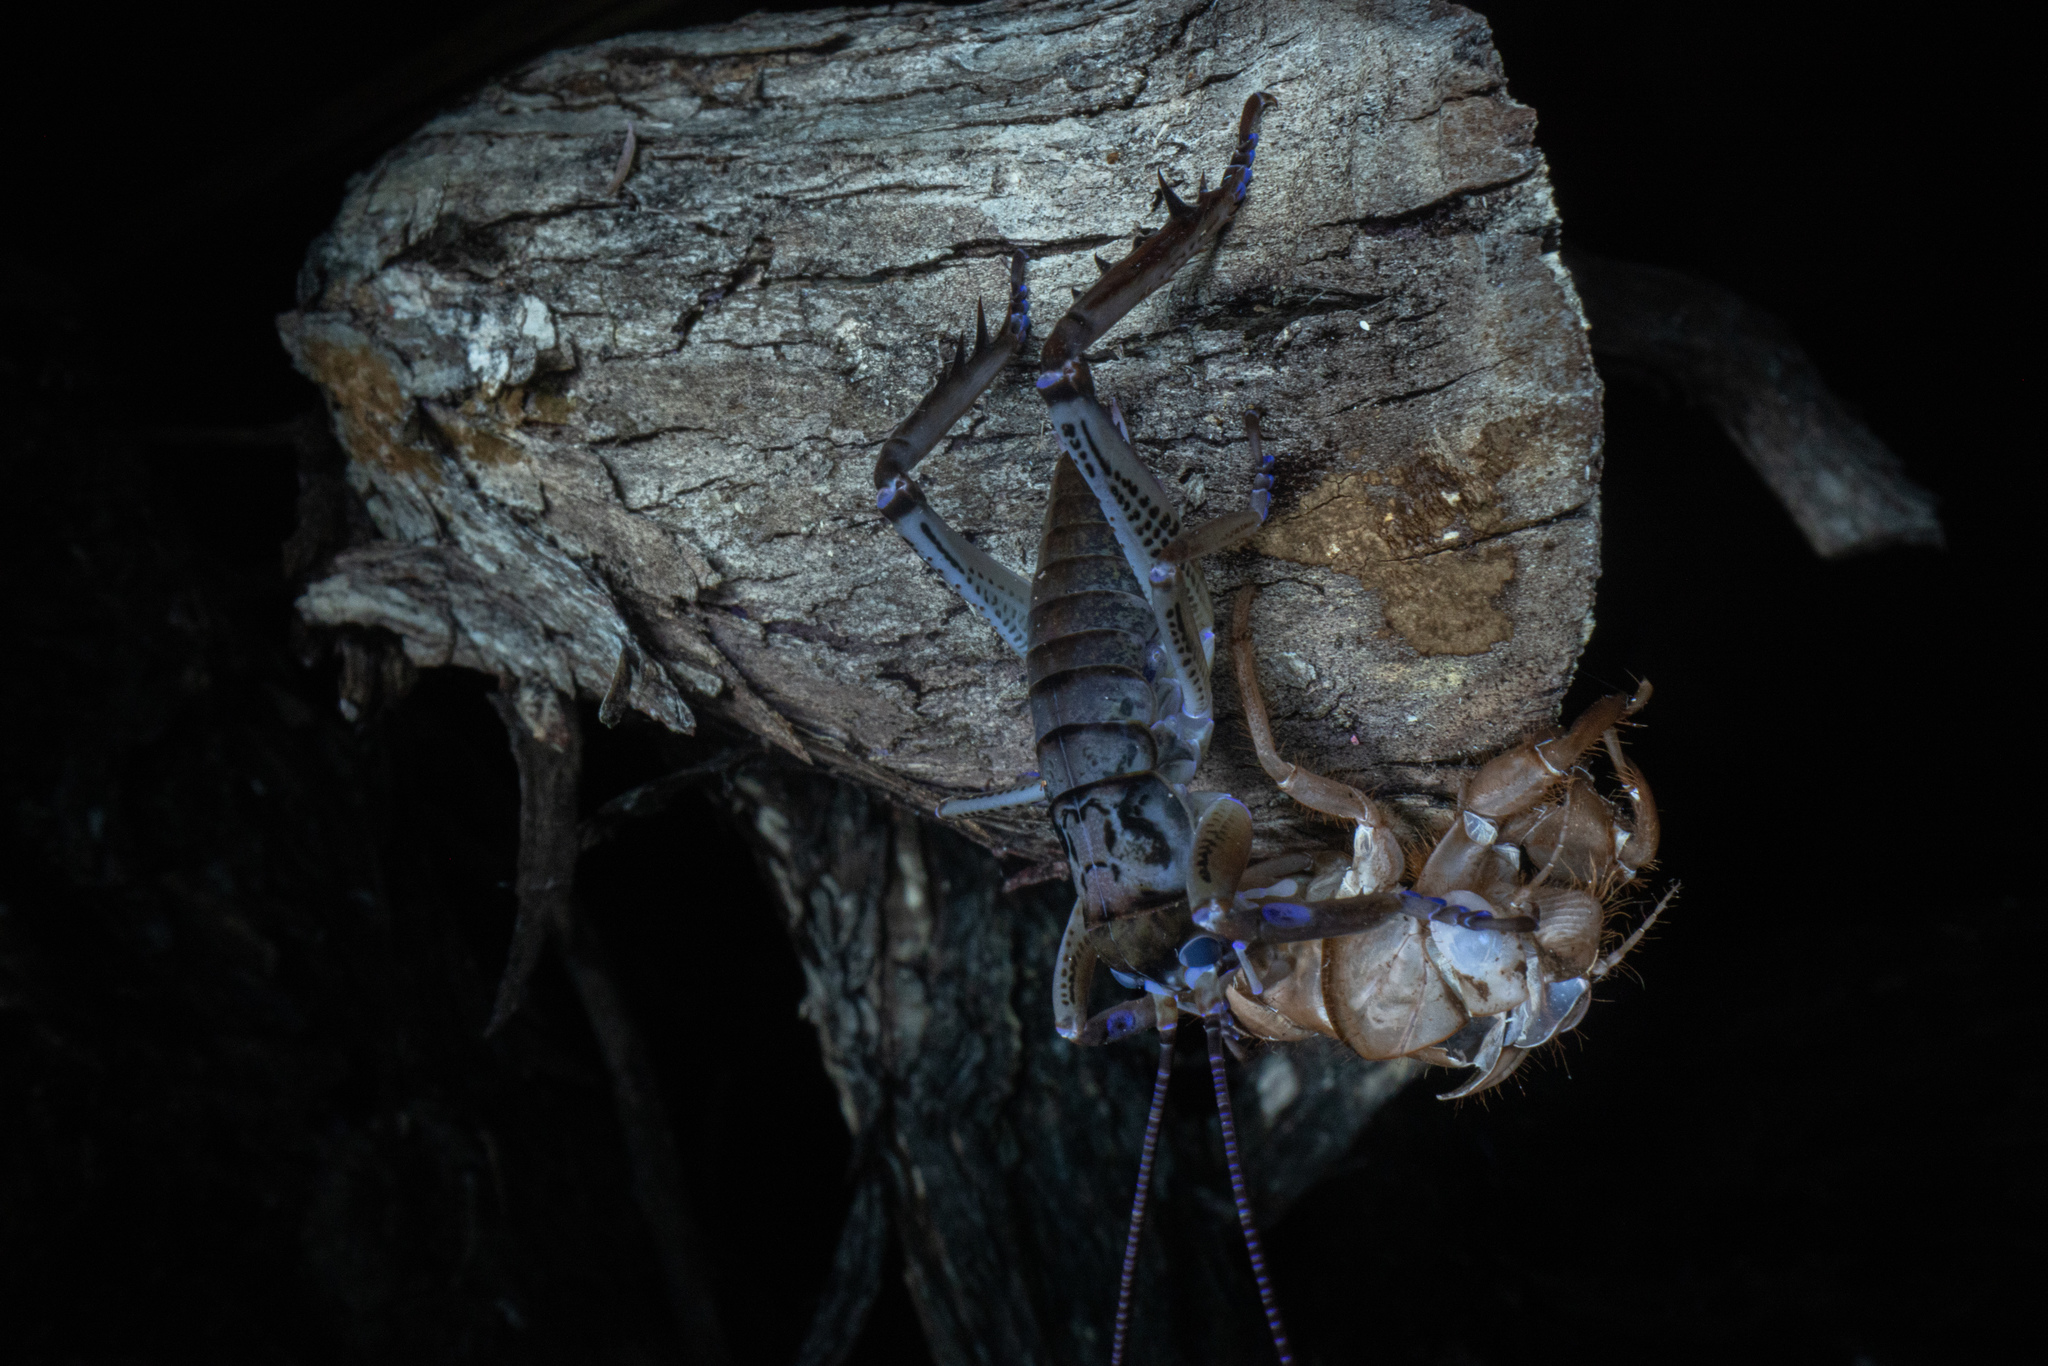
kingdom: Animalia
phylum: Arthropoda
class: Insecta
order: Orthoptera
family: Anostostomatidae
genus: Hemideina
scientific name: Hemideina thoracica
